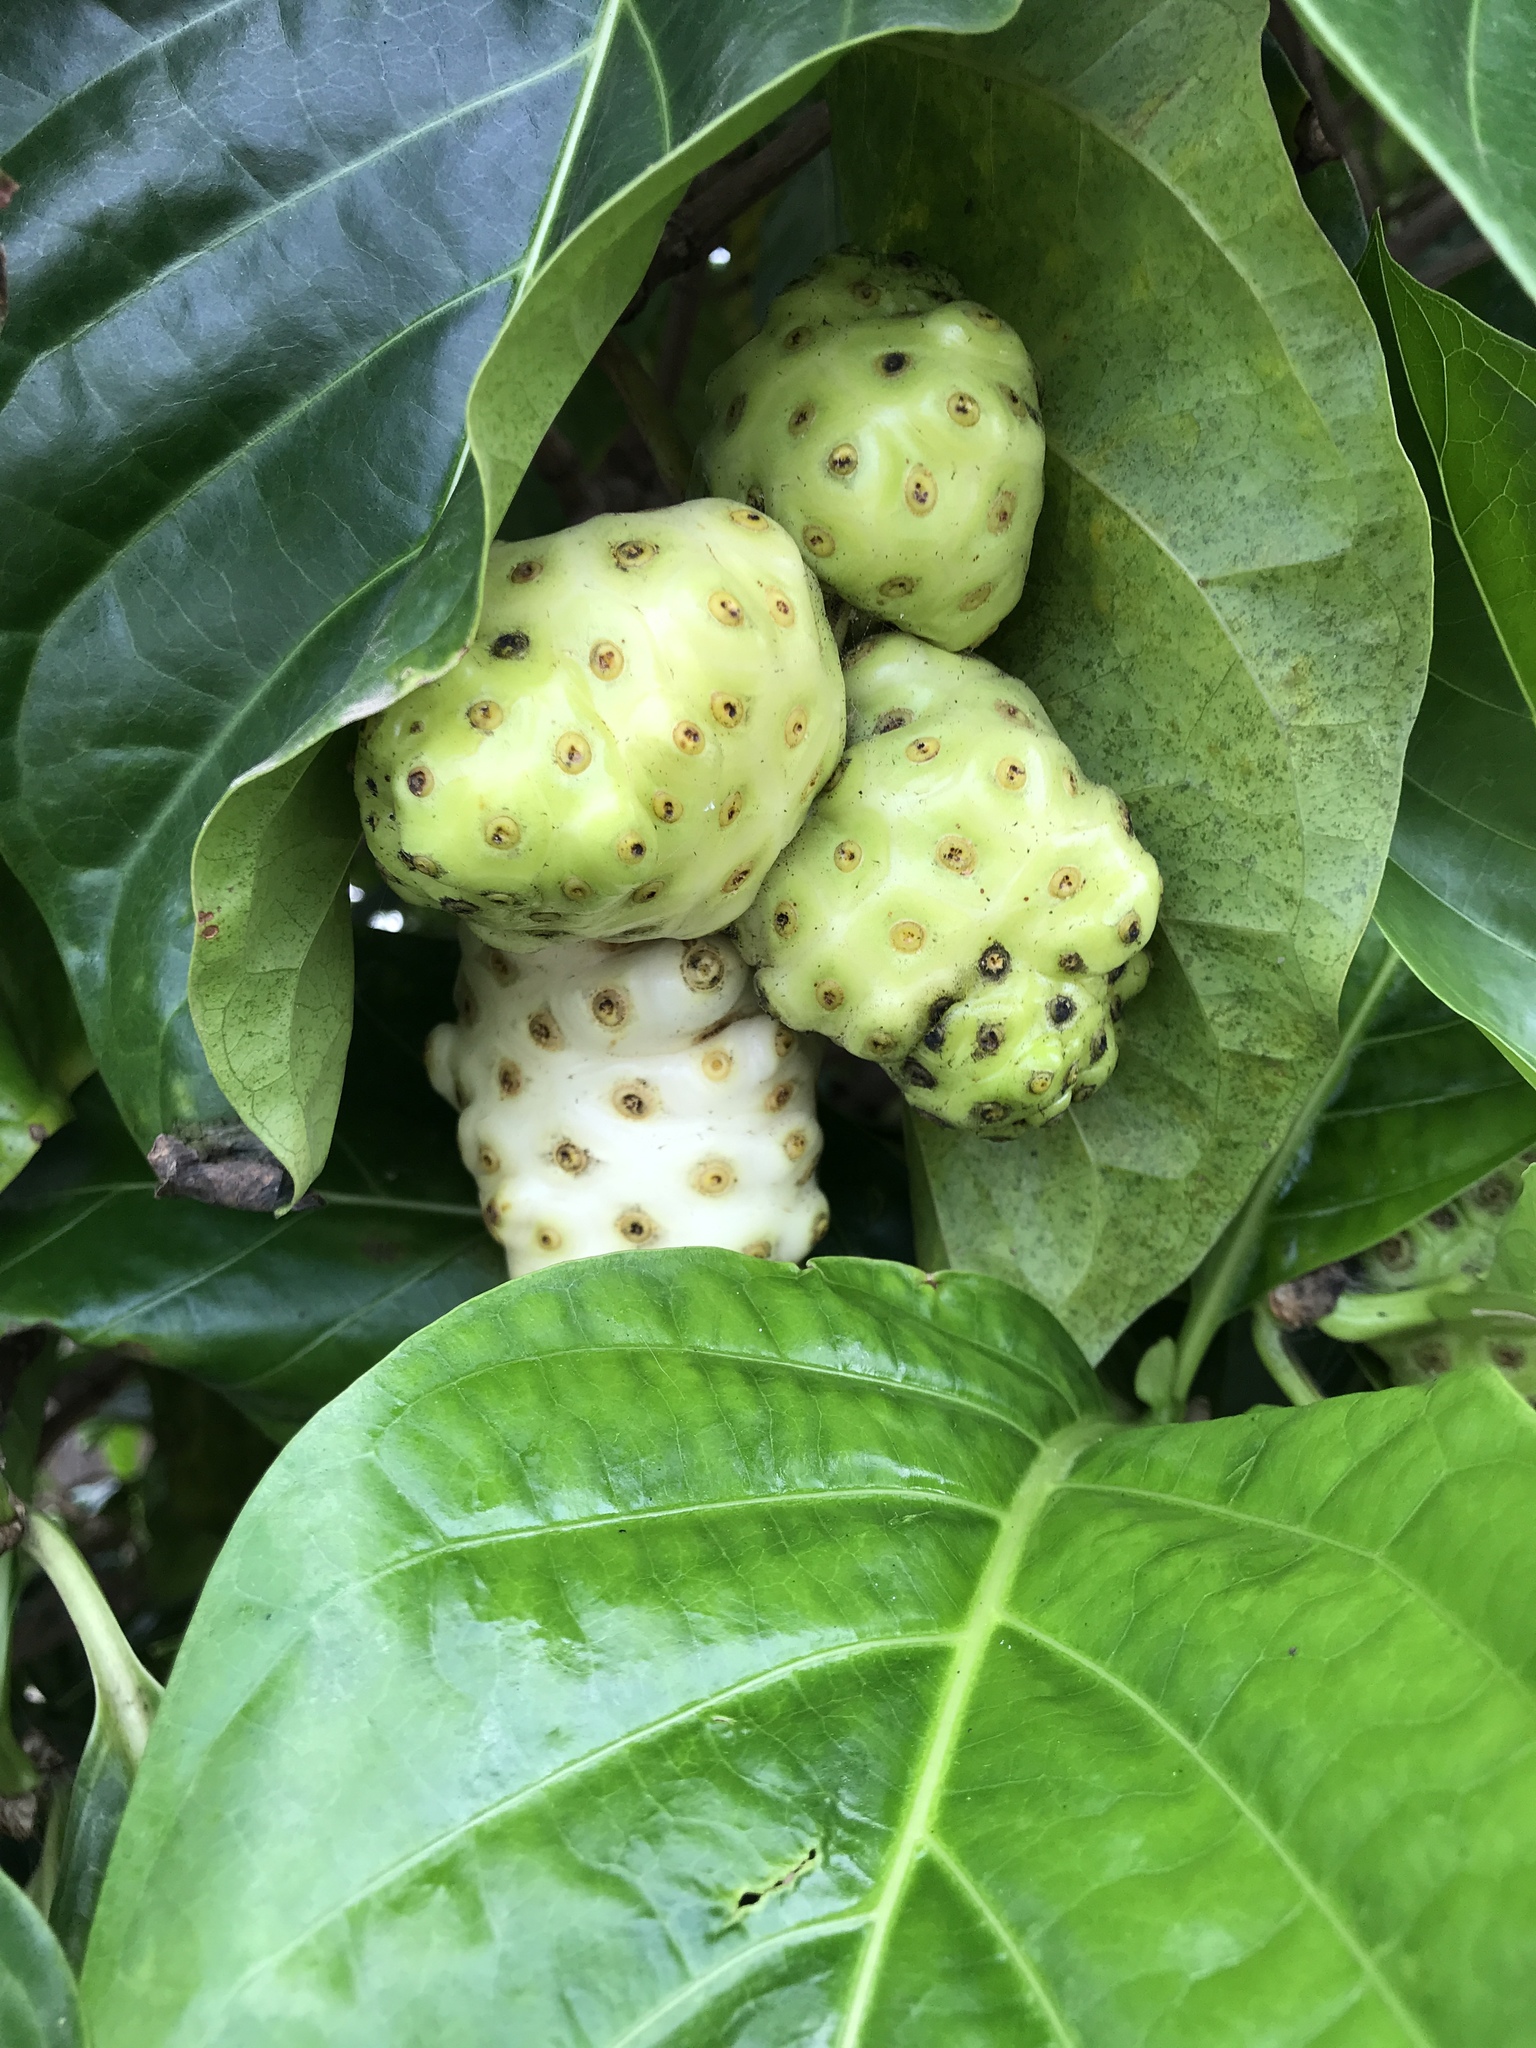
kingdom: Plantae
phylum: Tracheophyta
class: Magnoliopsida
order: Gentianales
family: Rubiaceae
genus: Morinda
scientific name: Morinda citrifolia
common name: Indian-mulberry
